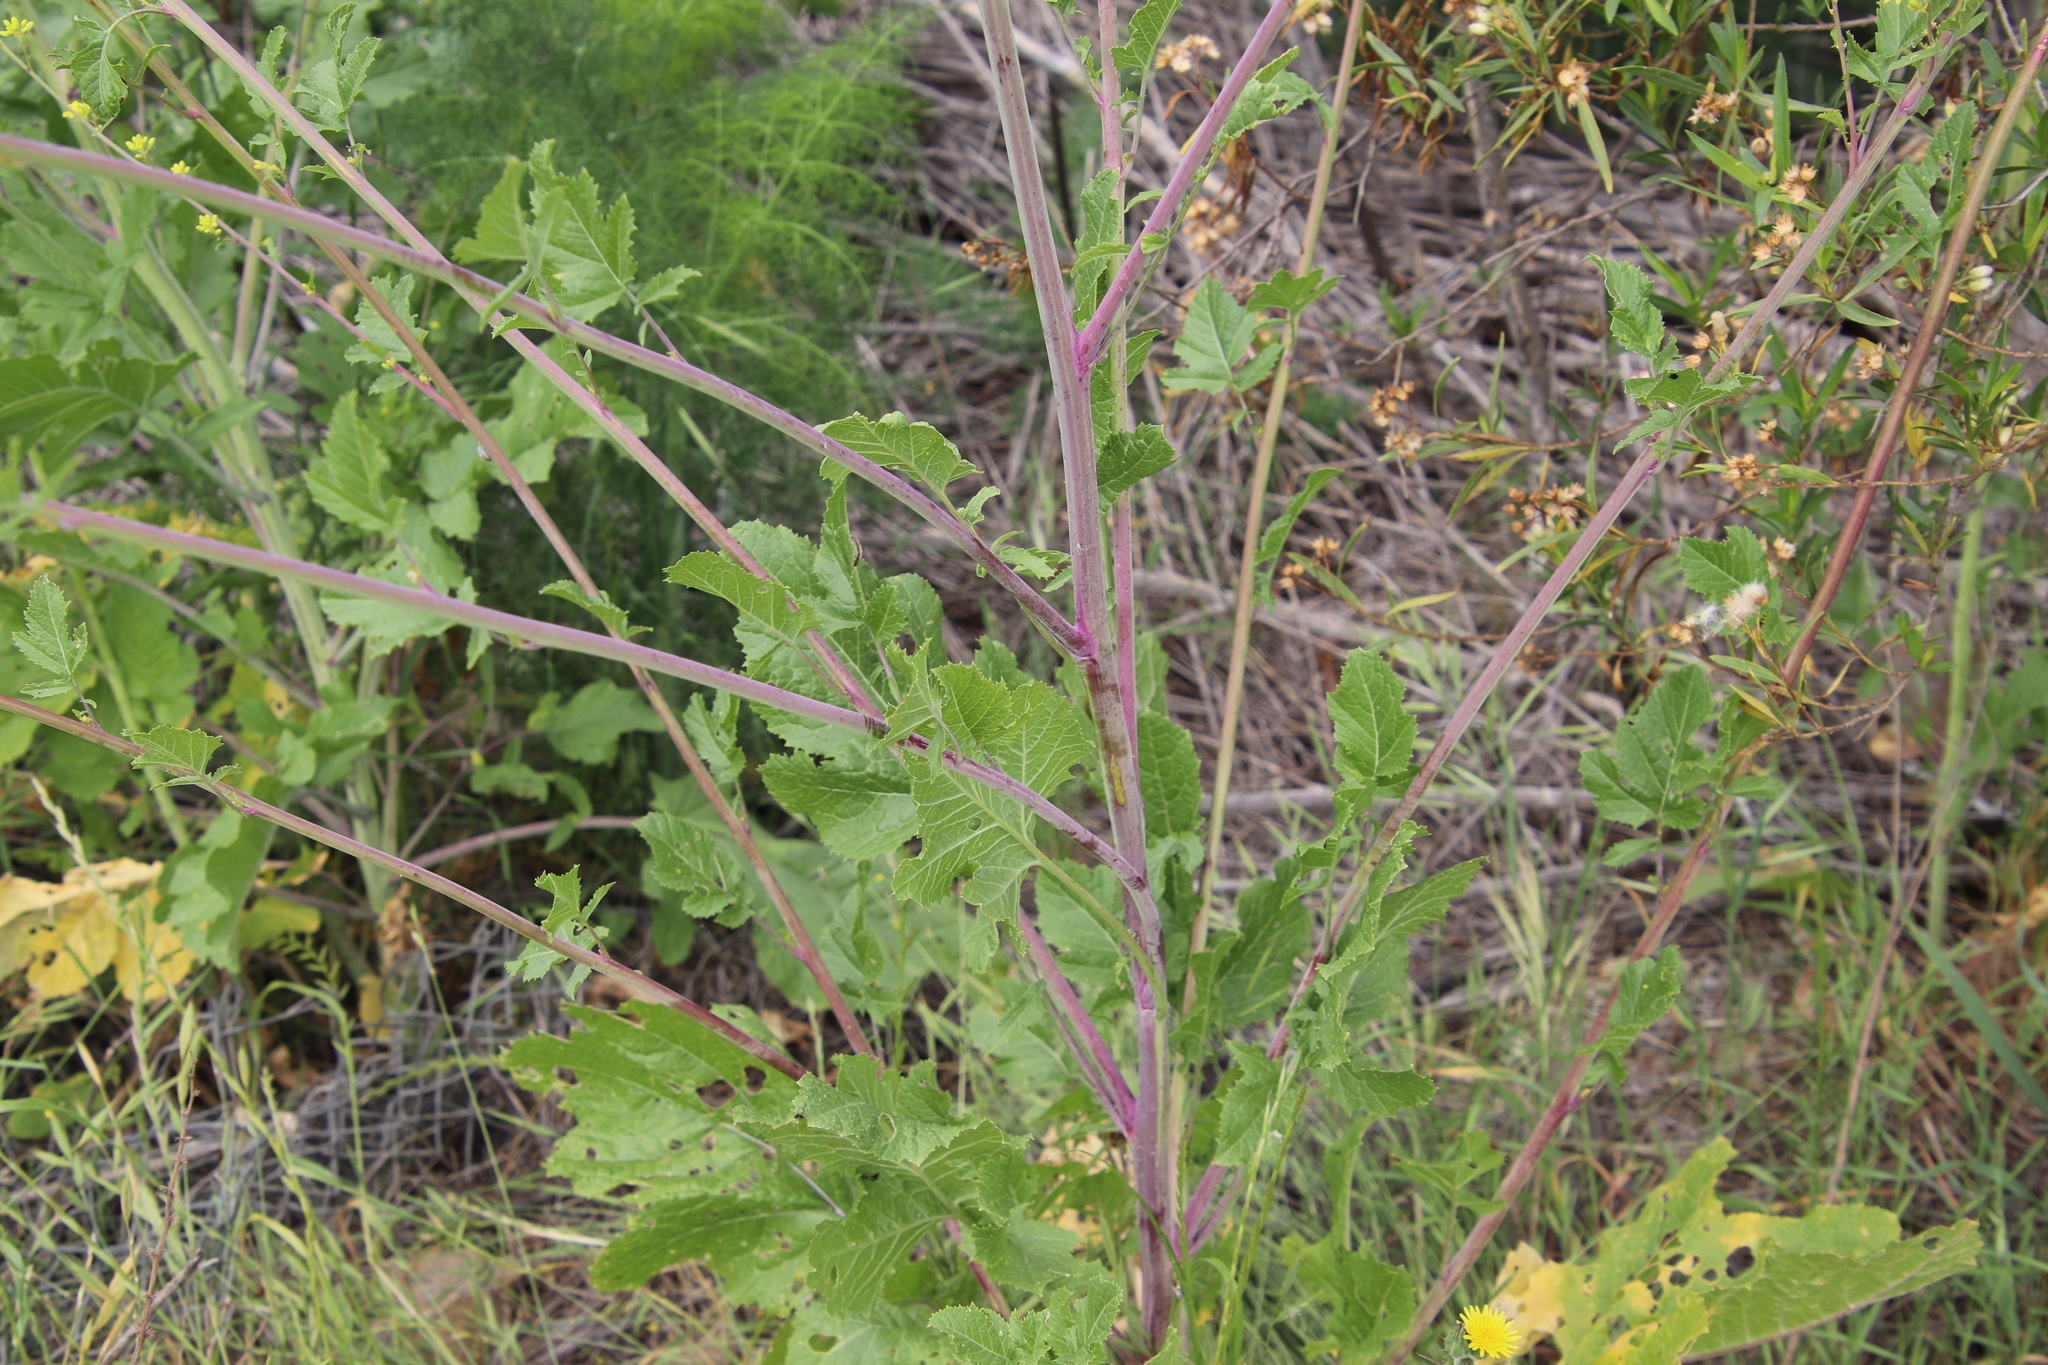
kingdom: Plantae
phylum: Tracheophyta
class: Magnoliopsida
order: Brassicales
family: Brassicaceae
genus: Brassica
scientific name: Brassica nigra
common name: Black mustard
